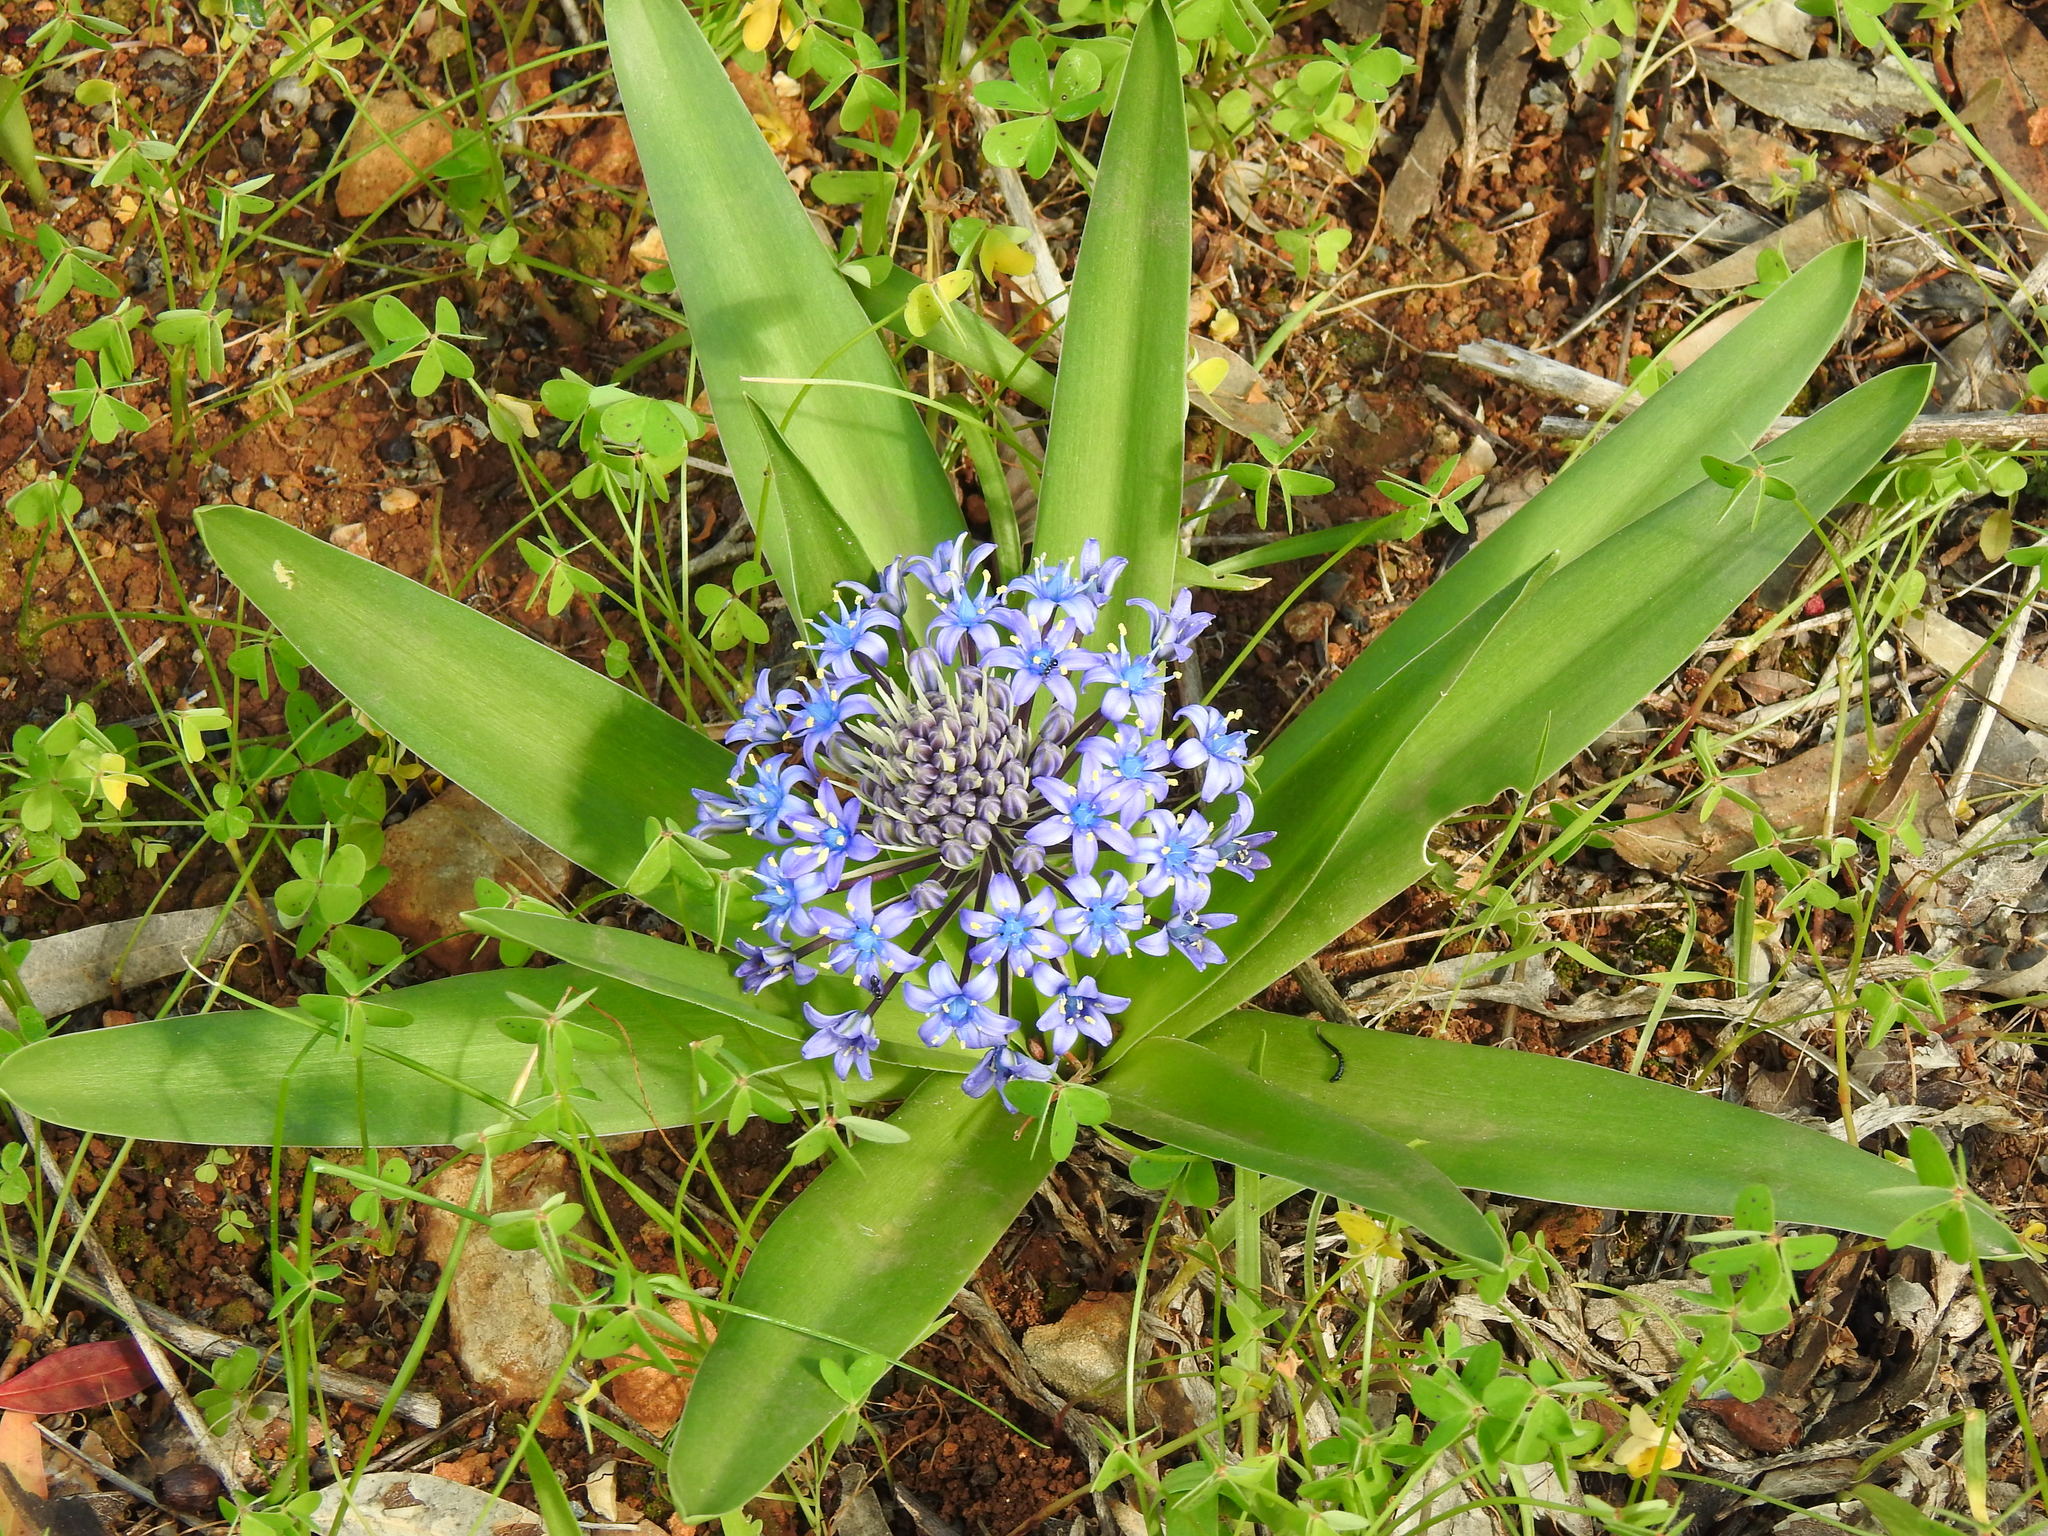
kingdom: Plantae
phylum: Tracheophyta
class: Liliopsida
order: Asparagales
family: Asparagaceae
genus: Scilla
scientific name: Scilla peruviana
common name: Portuguese squill
